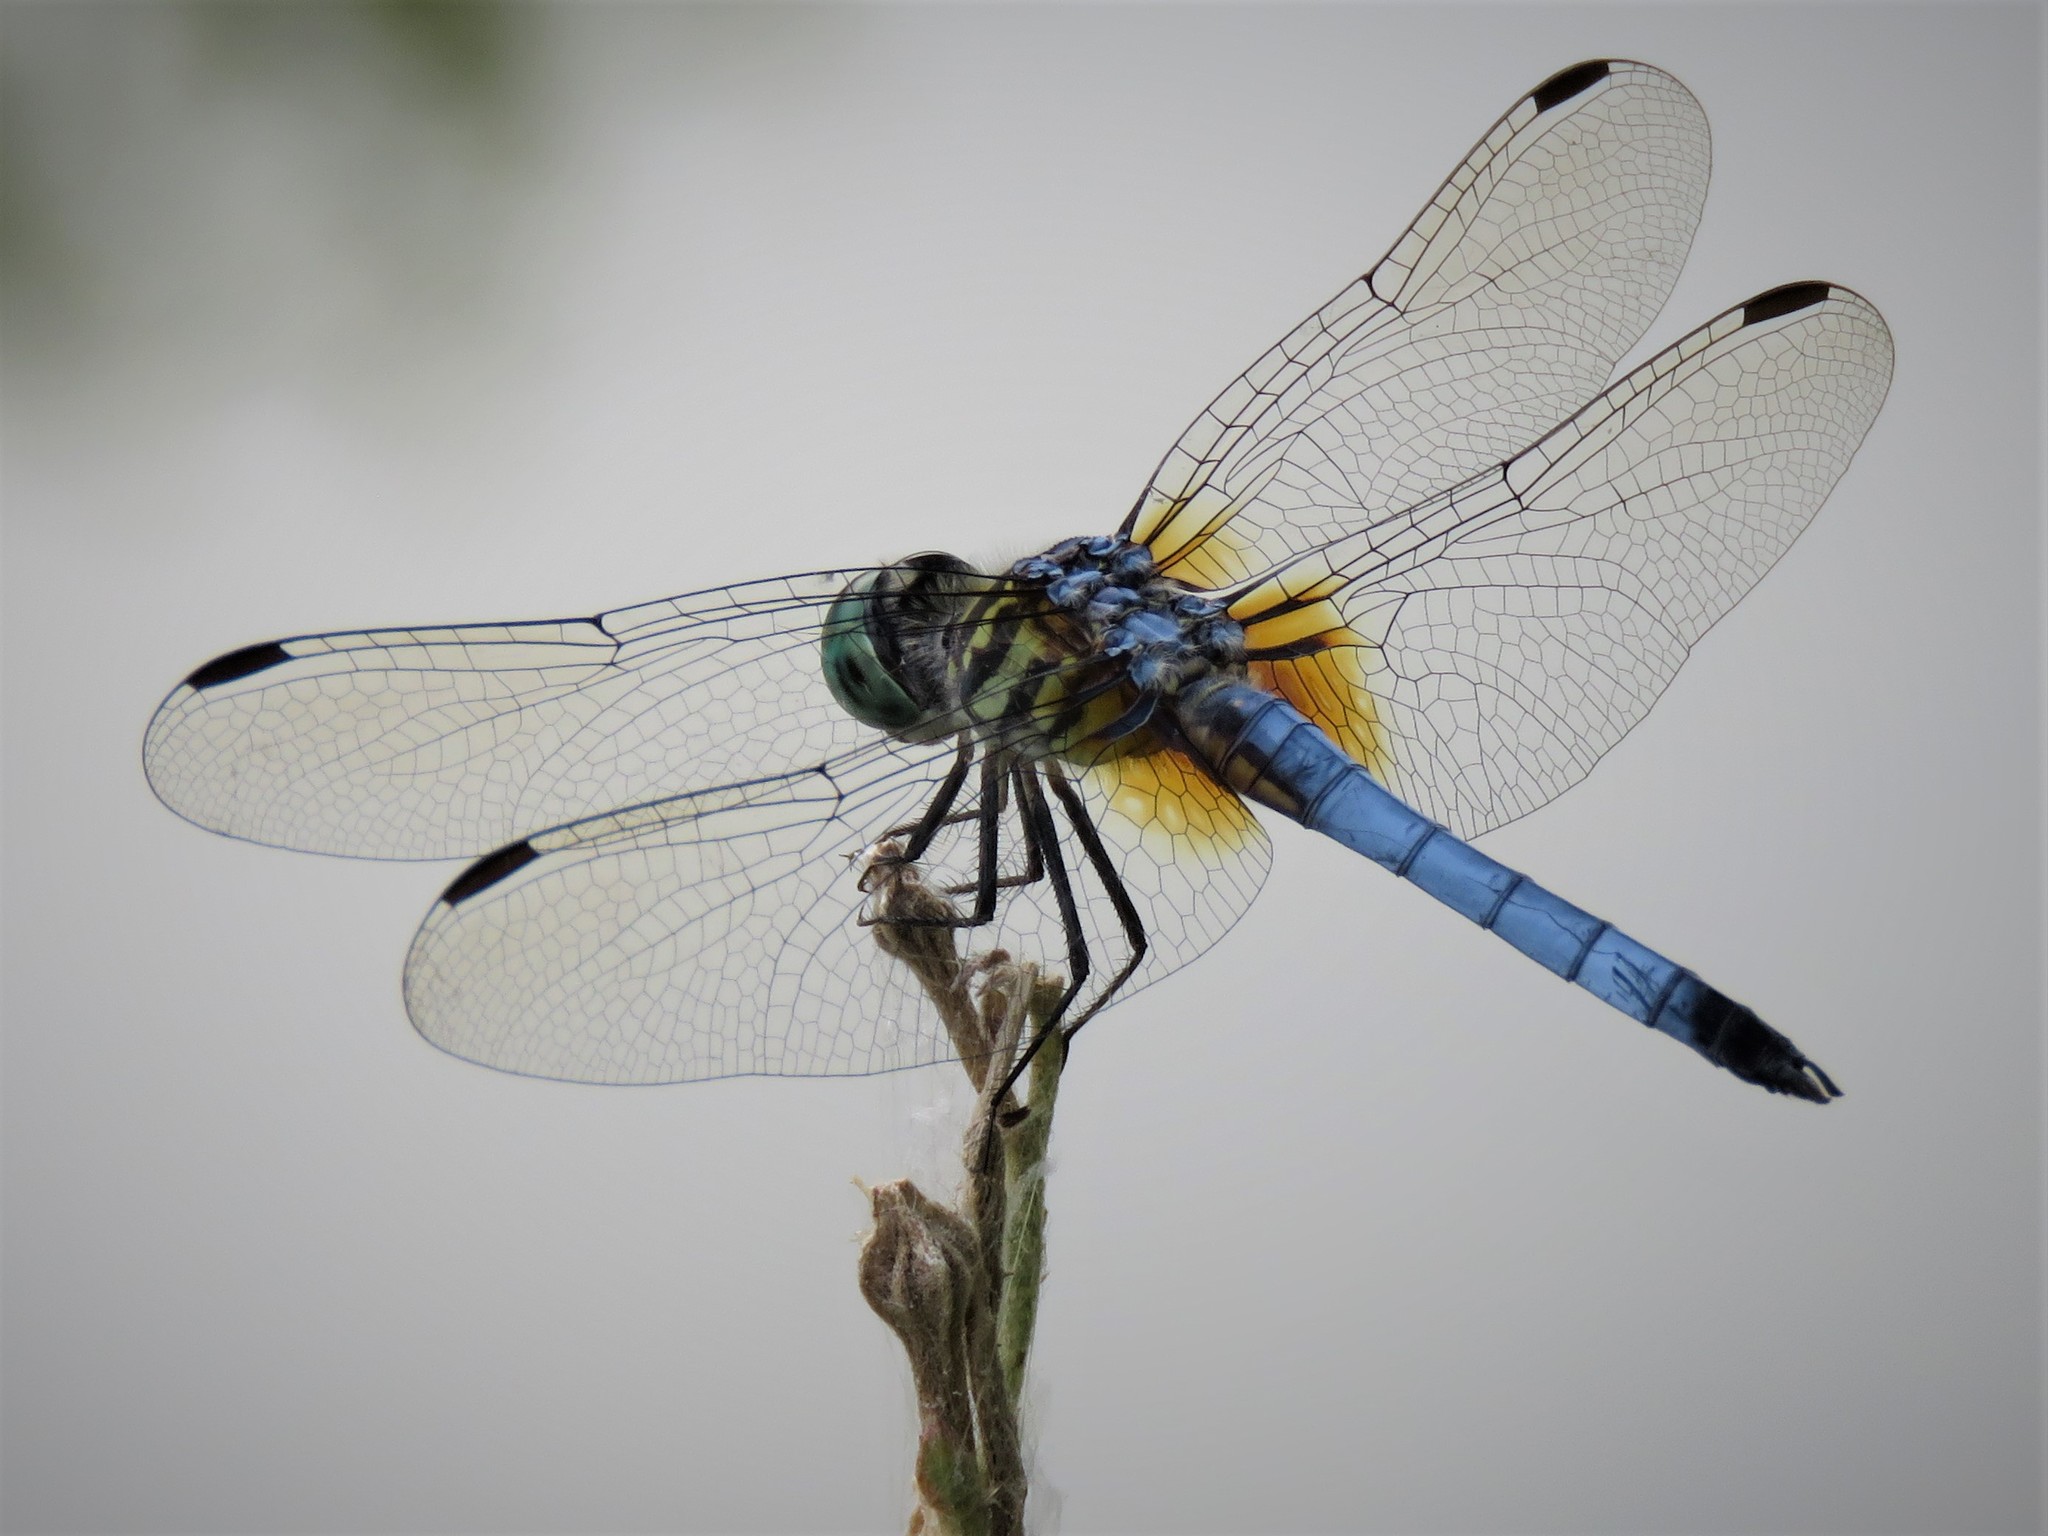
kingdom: Animalia
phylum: Arthropoda
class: Insecta
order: Odonata
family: Libellulidae
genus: Pachydiplax
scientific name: Pachydiplax longipennis
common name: Blue dasher
